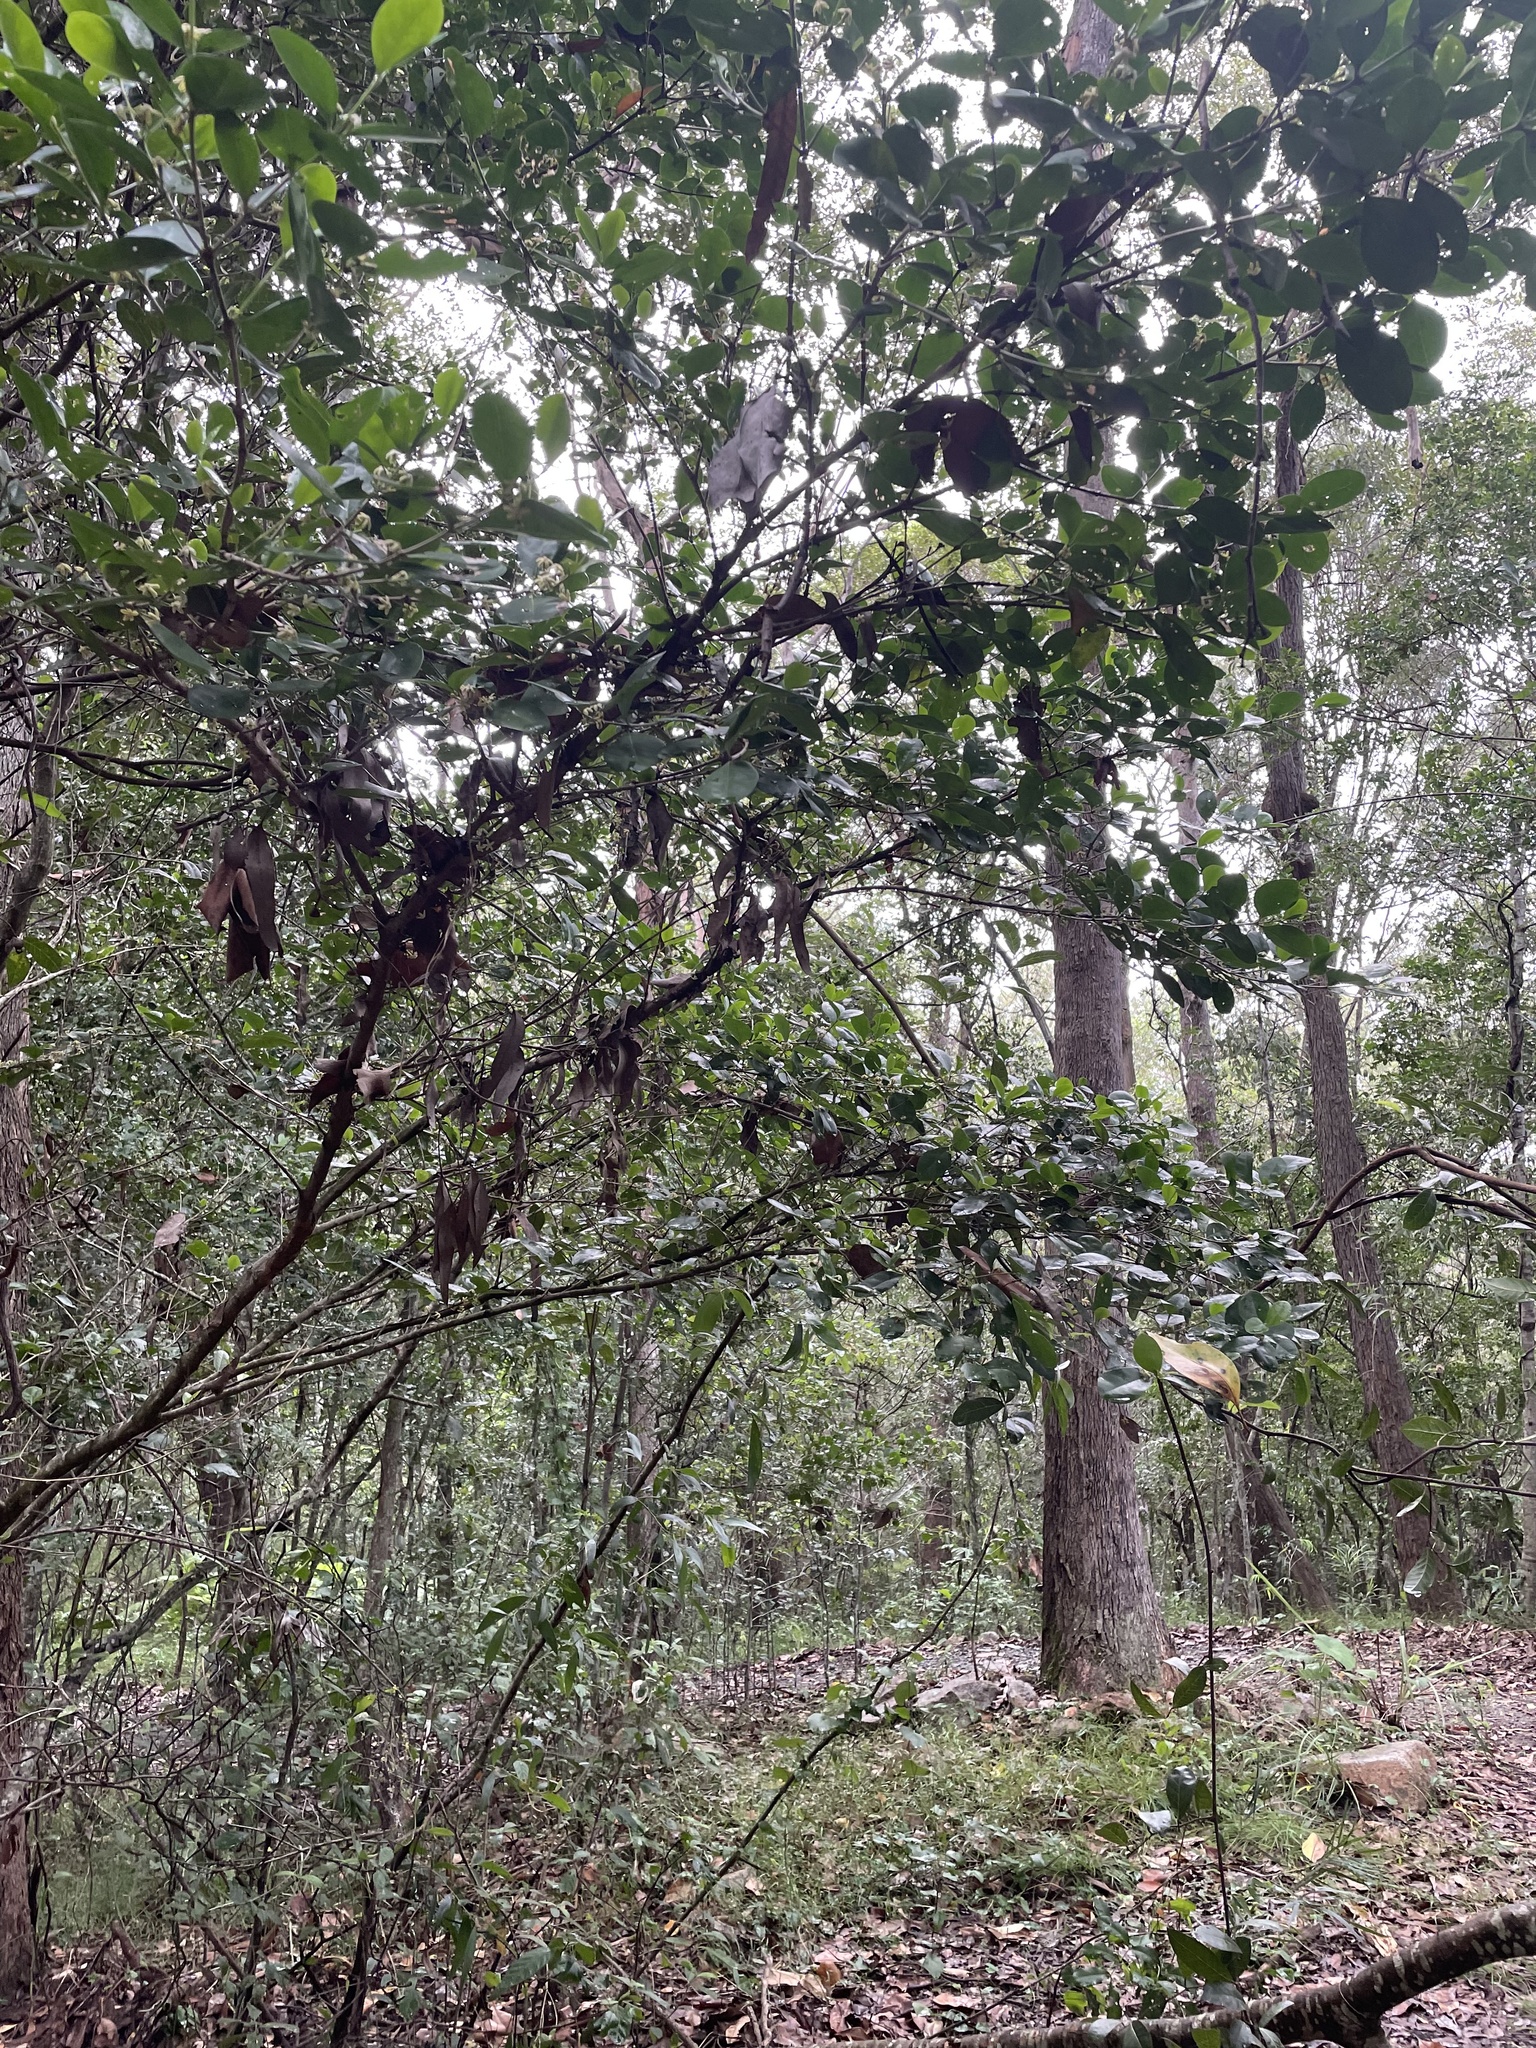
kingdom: Plantae
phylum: Tracheophyta
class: Magnoliopsida
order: Gentianales
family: Rubiaceae
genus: Cyclophyllum
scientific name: Cyclophyllum coprosmoides
